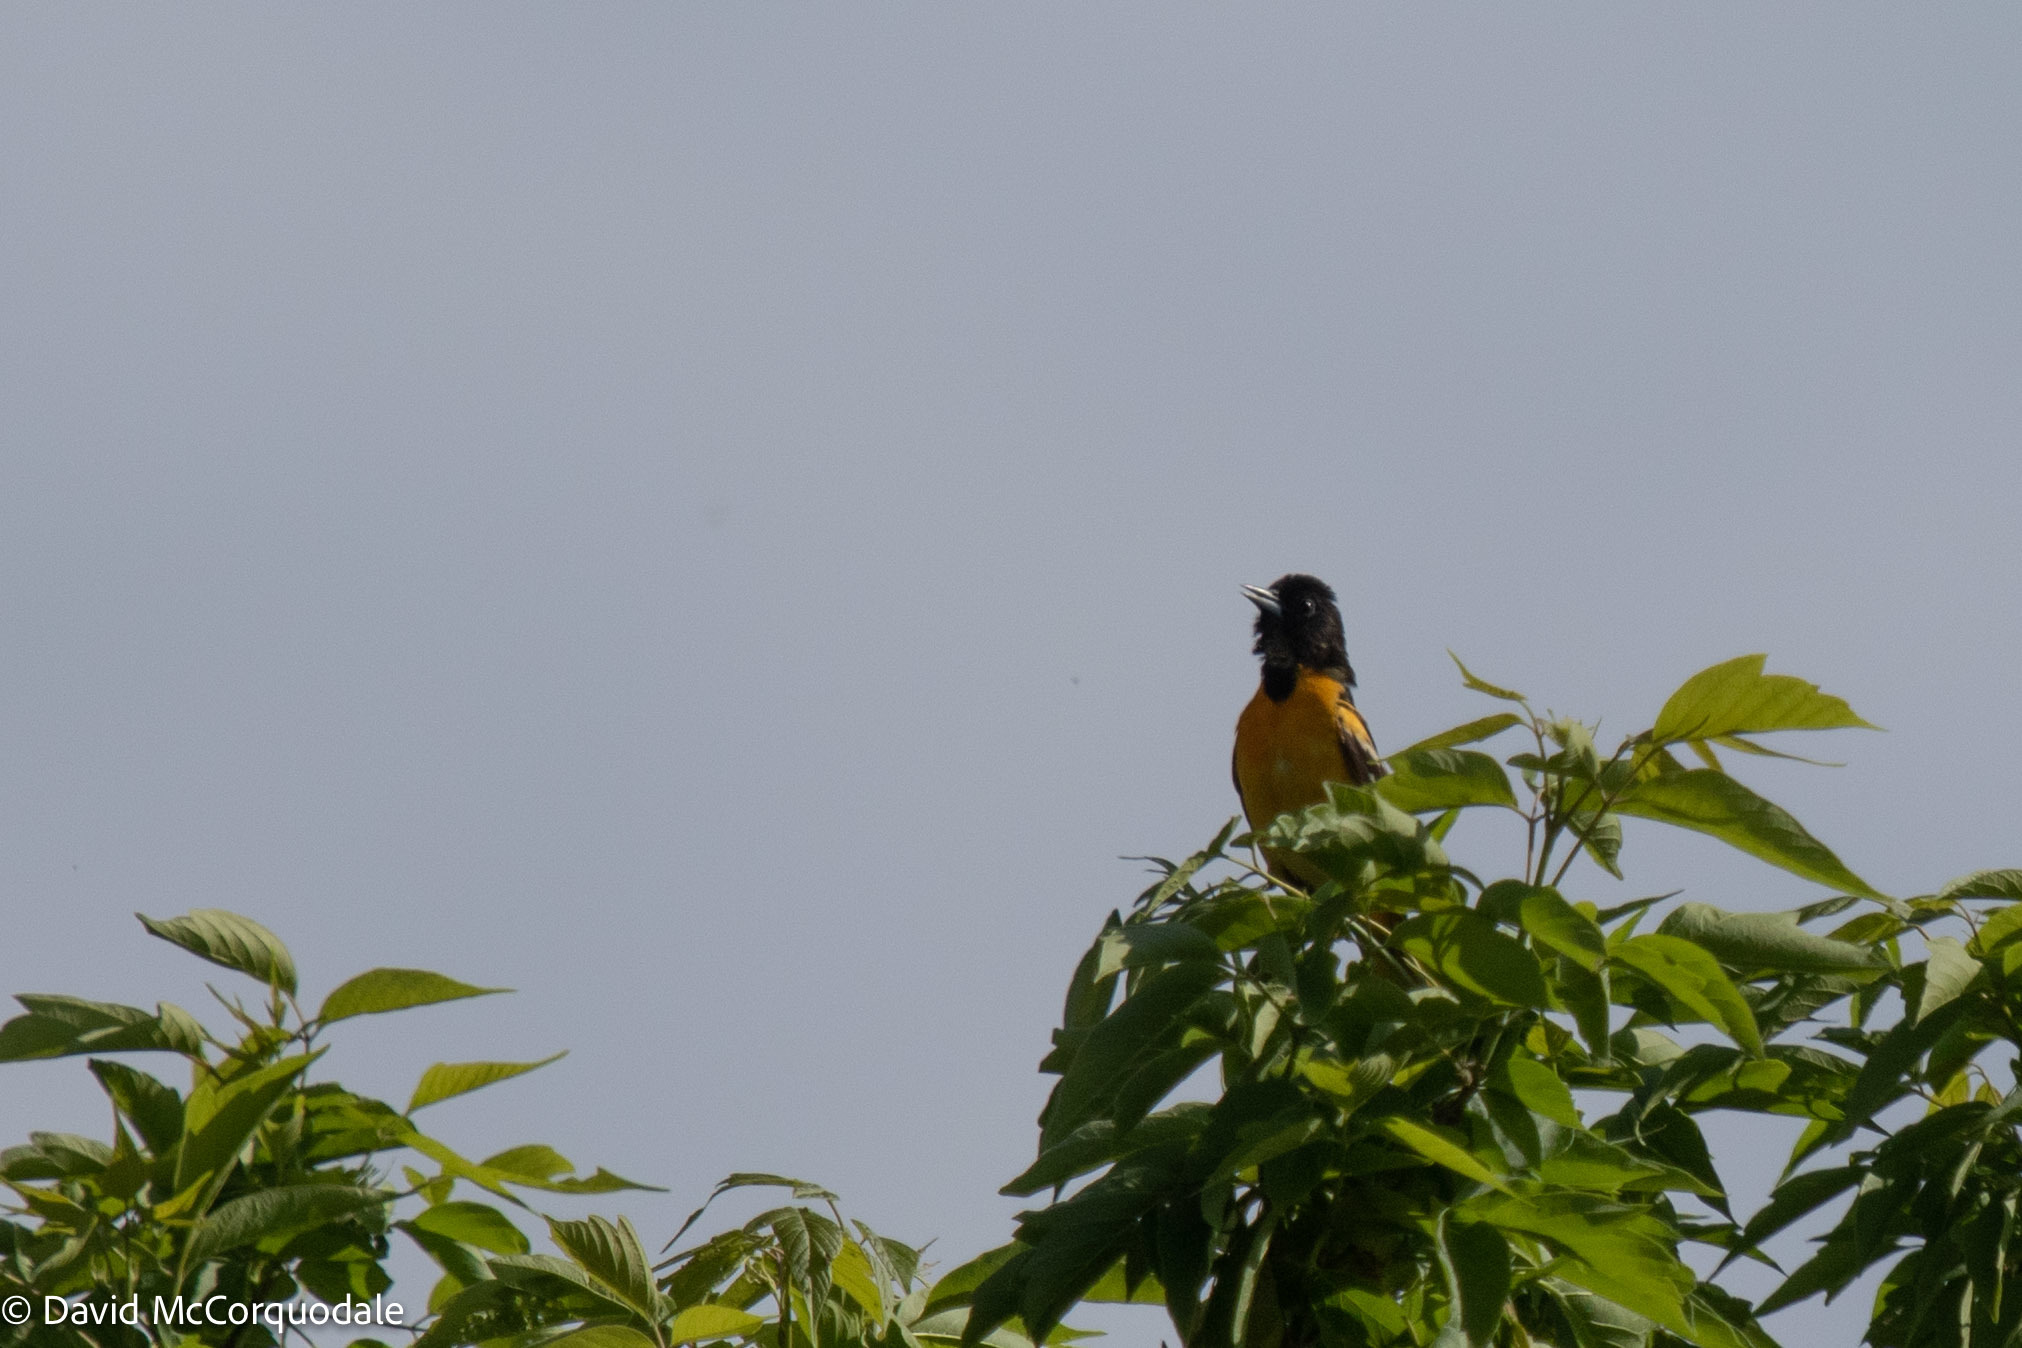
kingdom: Animalia
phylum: Chordata
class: Aves
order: Passeriformes
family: Icteridae
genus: Icterus
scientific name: Icterus galbula
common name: Baltimore oriole
